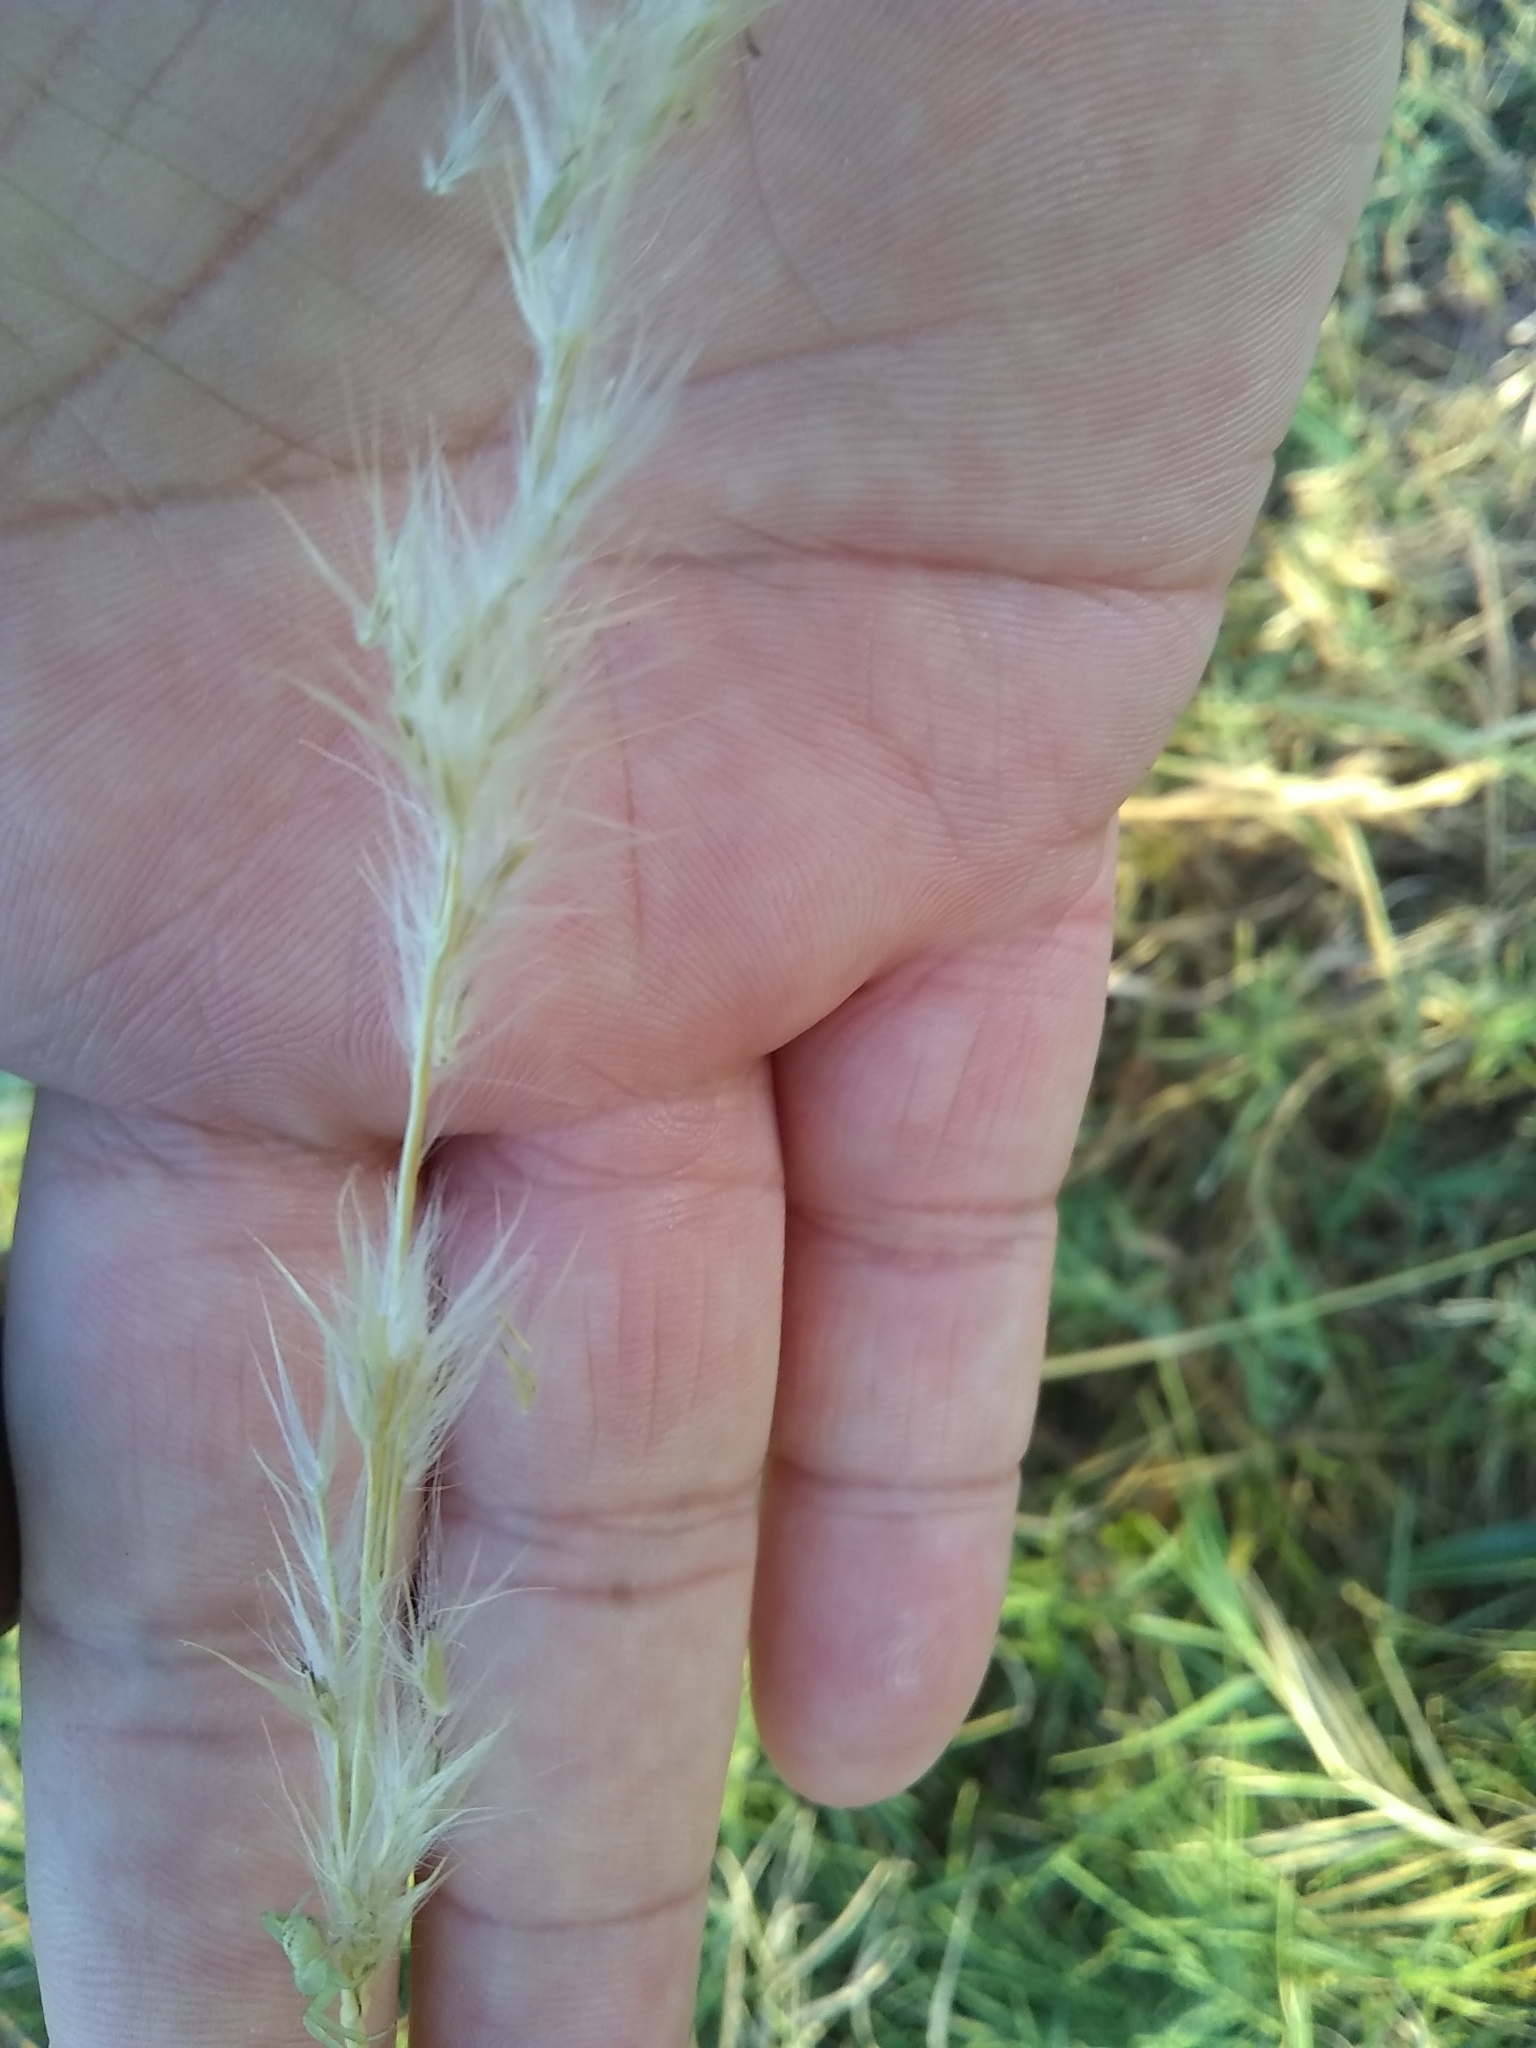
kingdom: Plantae
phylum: Tracheophyta
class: Liliopsida
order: Poales
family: Poaceae
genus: Bothriochloa
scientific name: Bothriochloa torreyana
